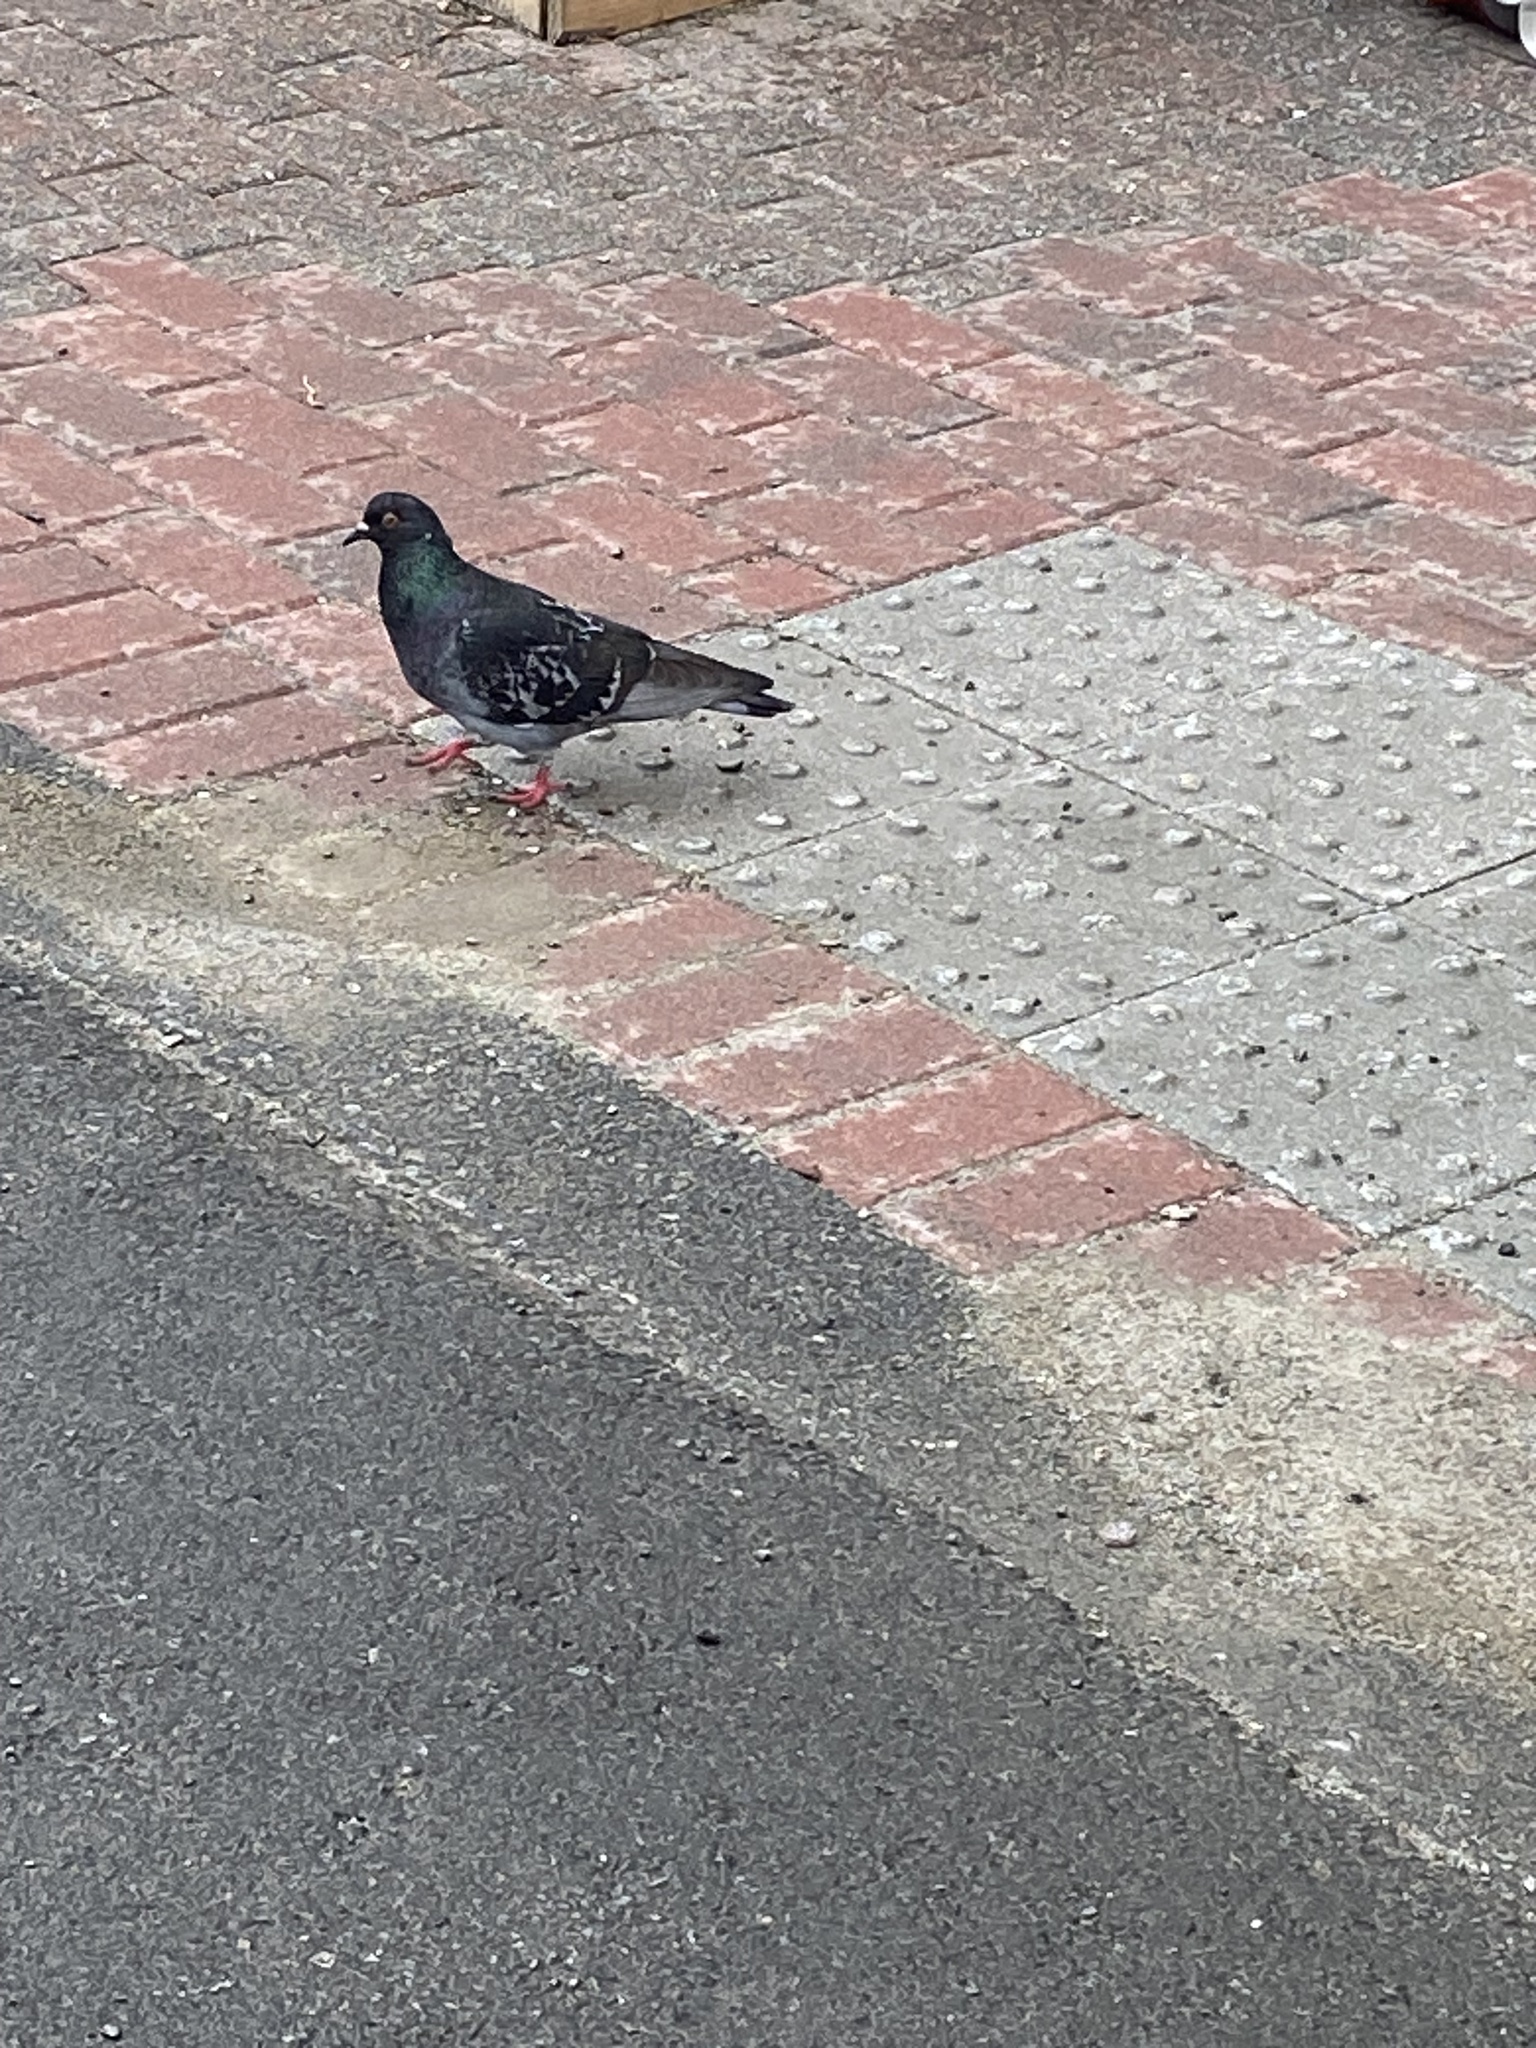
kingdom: Animalia
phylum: Chordata
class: Aves
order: Columbiformes
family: Columbidae
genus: Columba
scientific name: Columba livia
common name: Rock pigeon
